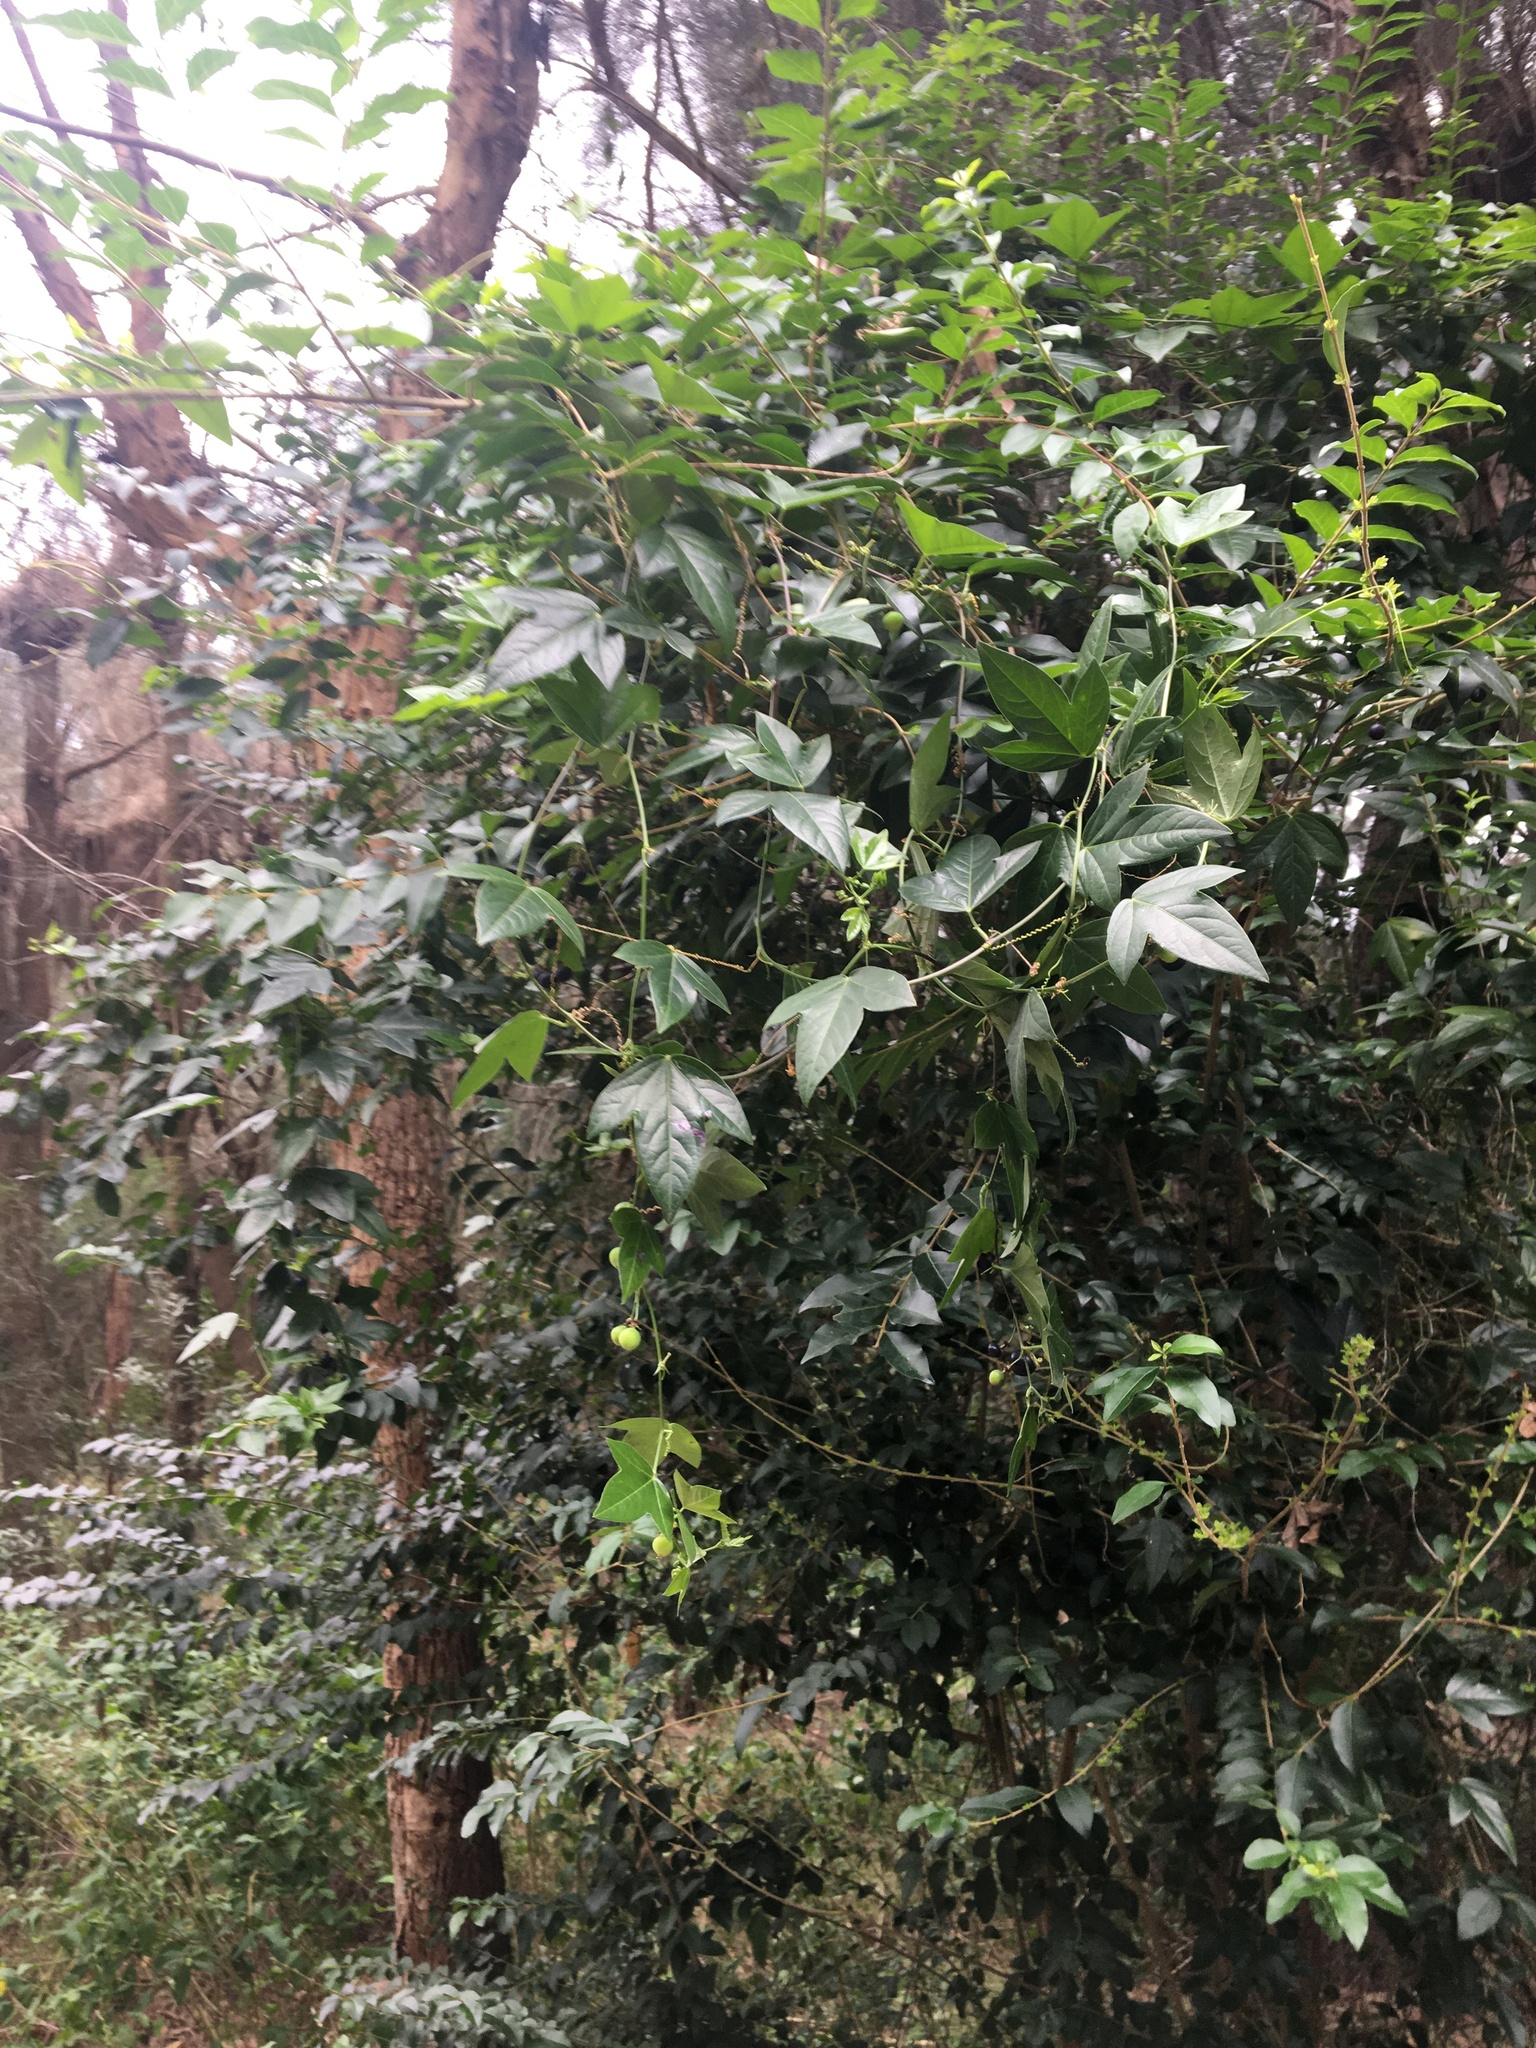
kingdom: Plantae
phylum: Tracheophyta
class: Magnoliopsida
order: Malpighiales
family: Passifloraceae
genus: Passiflora
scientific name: Passiflora suberosa
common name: Wild passionfruit
